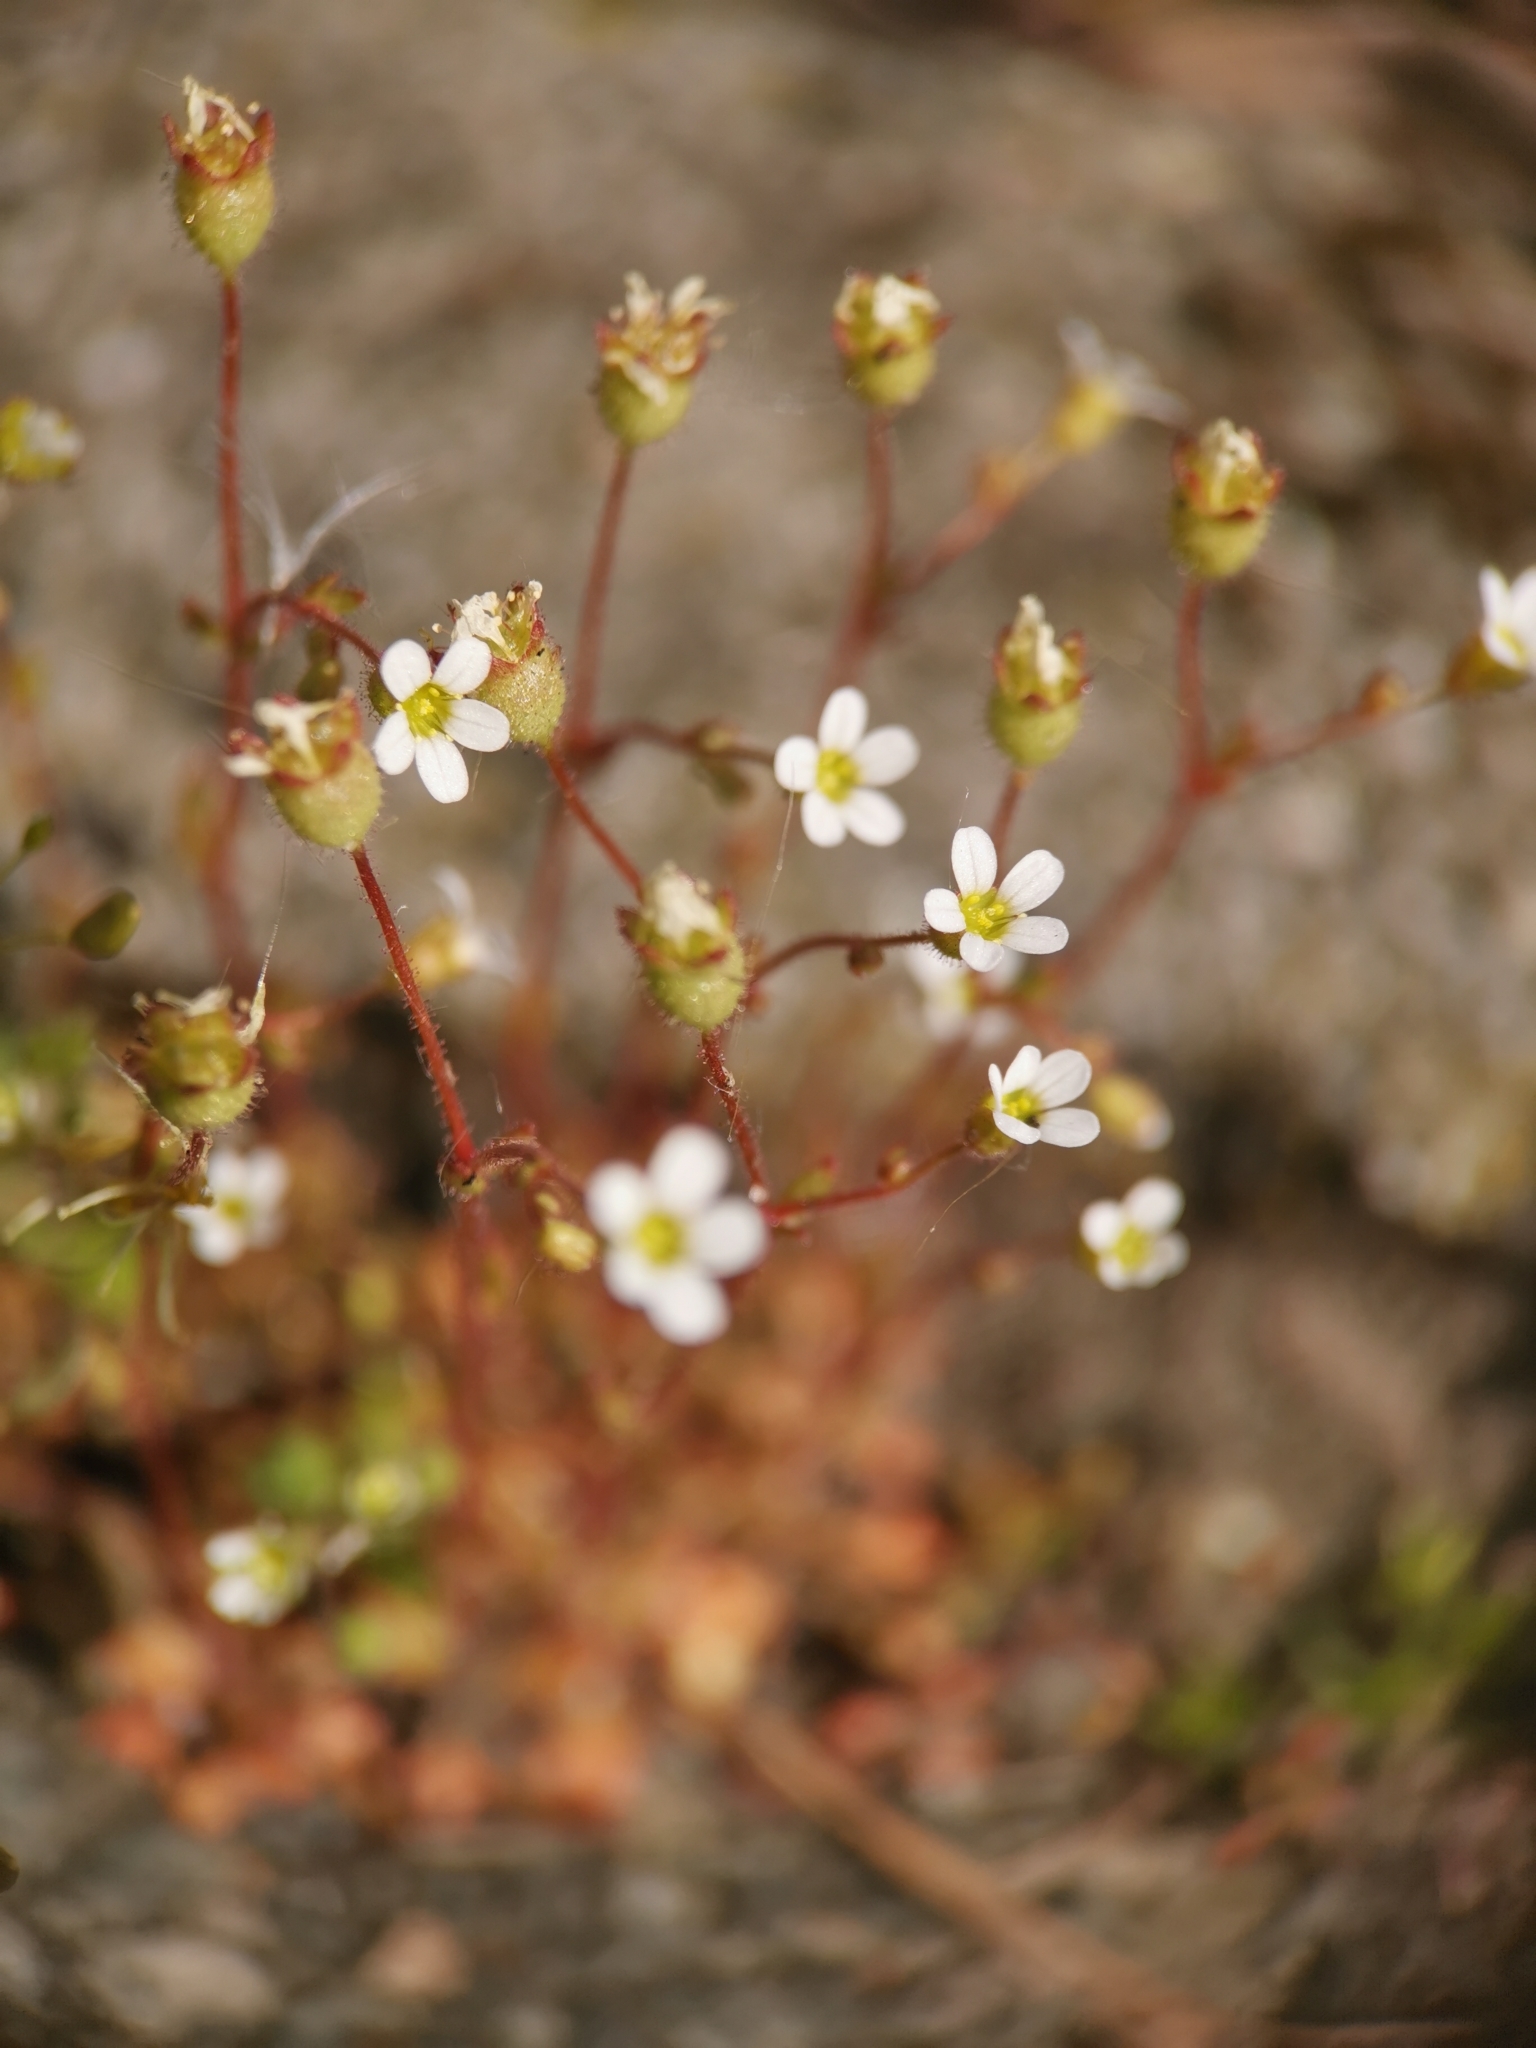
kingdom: Plantae
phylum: Tracheophyta
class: Magnoliopsida
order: Saxifragales
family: Saxifragaceae
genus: Saxifraga
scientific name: Saxifraga tridactylites
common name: Rue-leaved saxifrage
